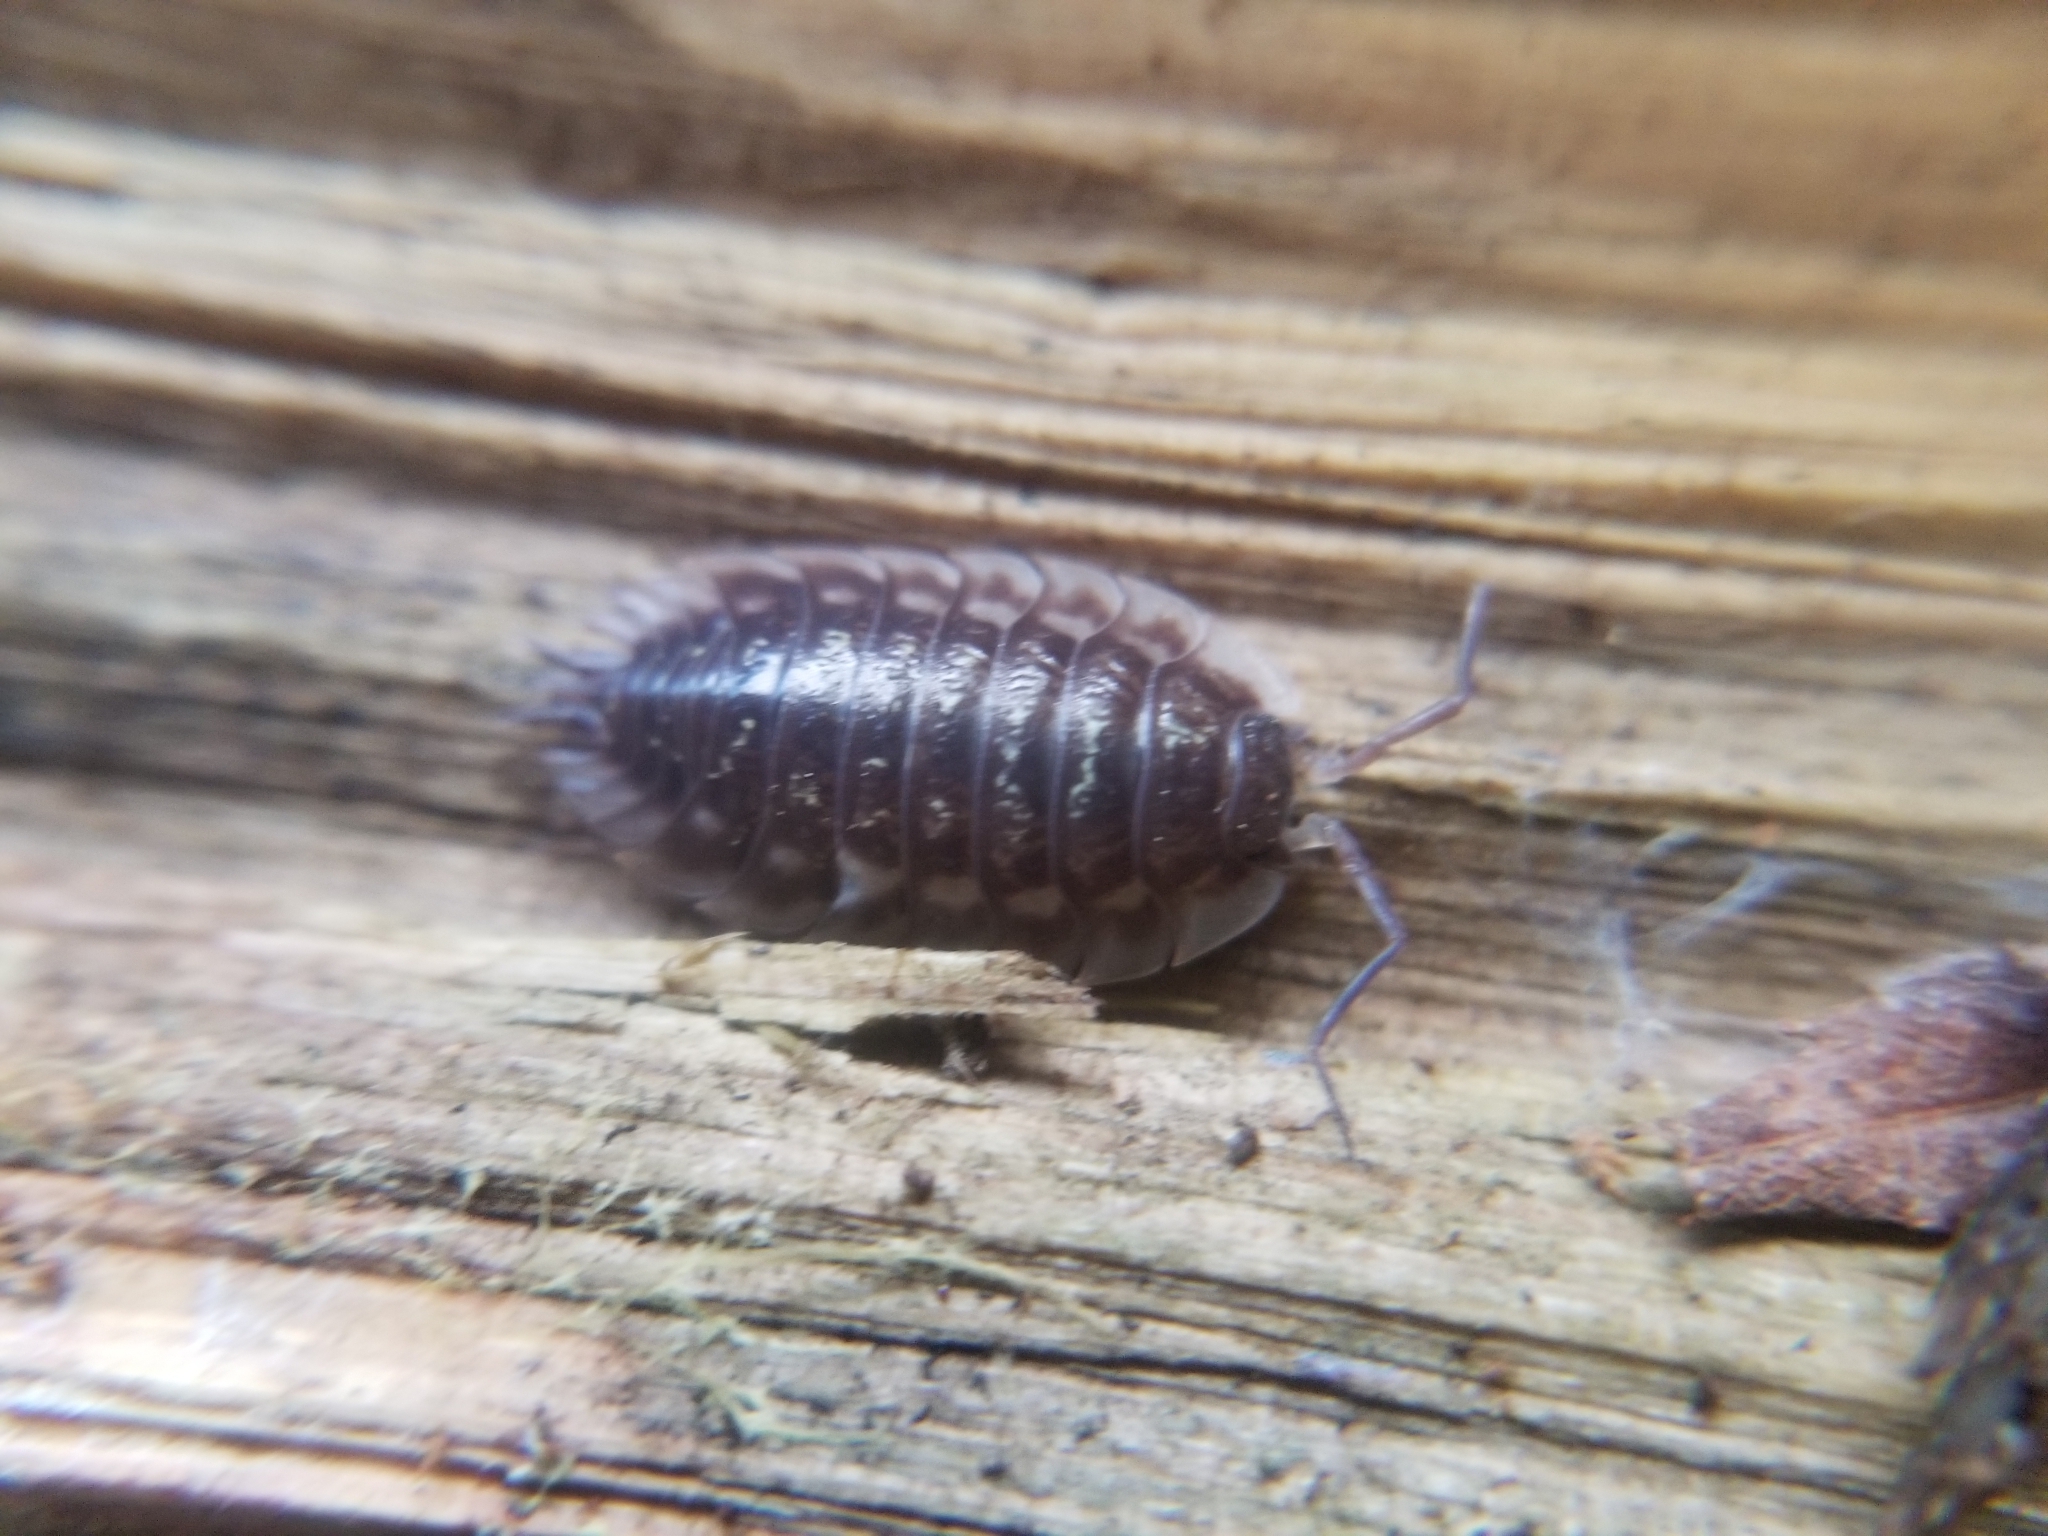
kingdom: Animalia
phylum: Arthropoda
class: Malacostraca
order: Isopoda
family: Oniscidae
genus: Oniscus
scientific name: Oniscus asellus
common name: Common shiny woodlouse
